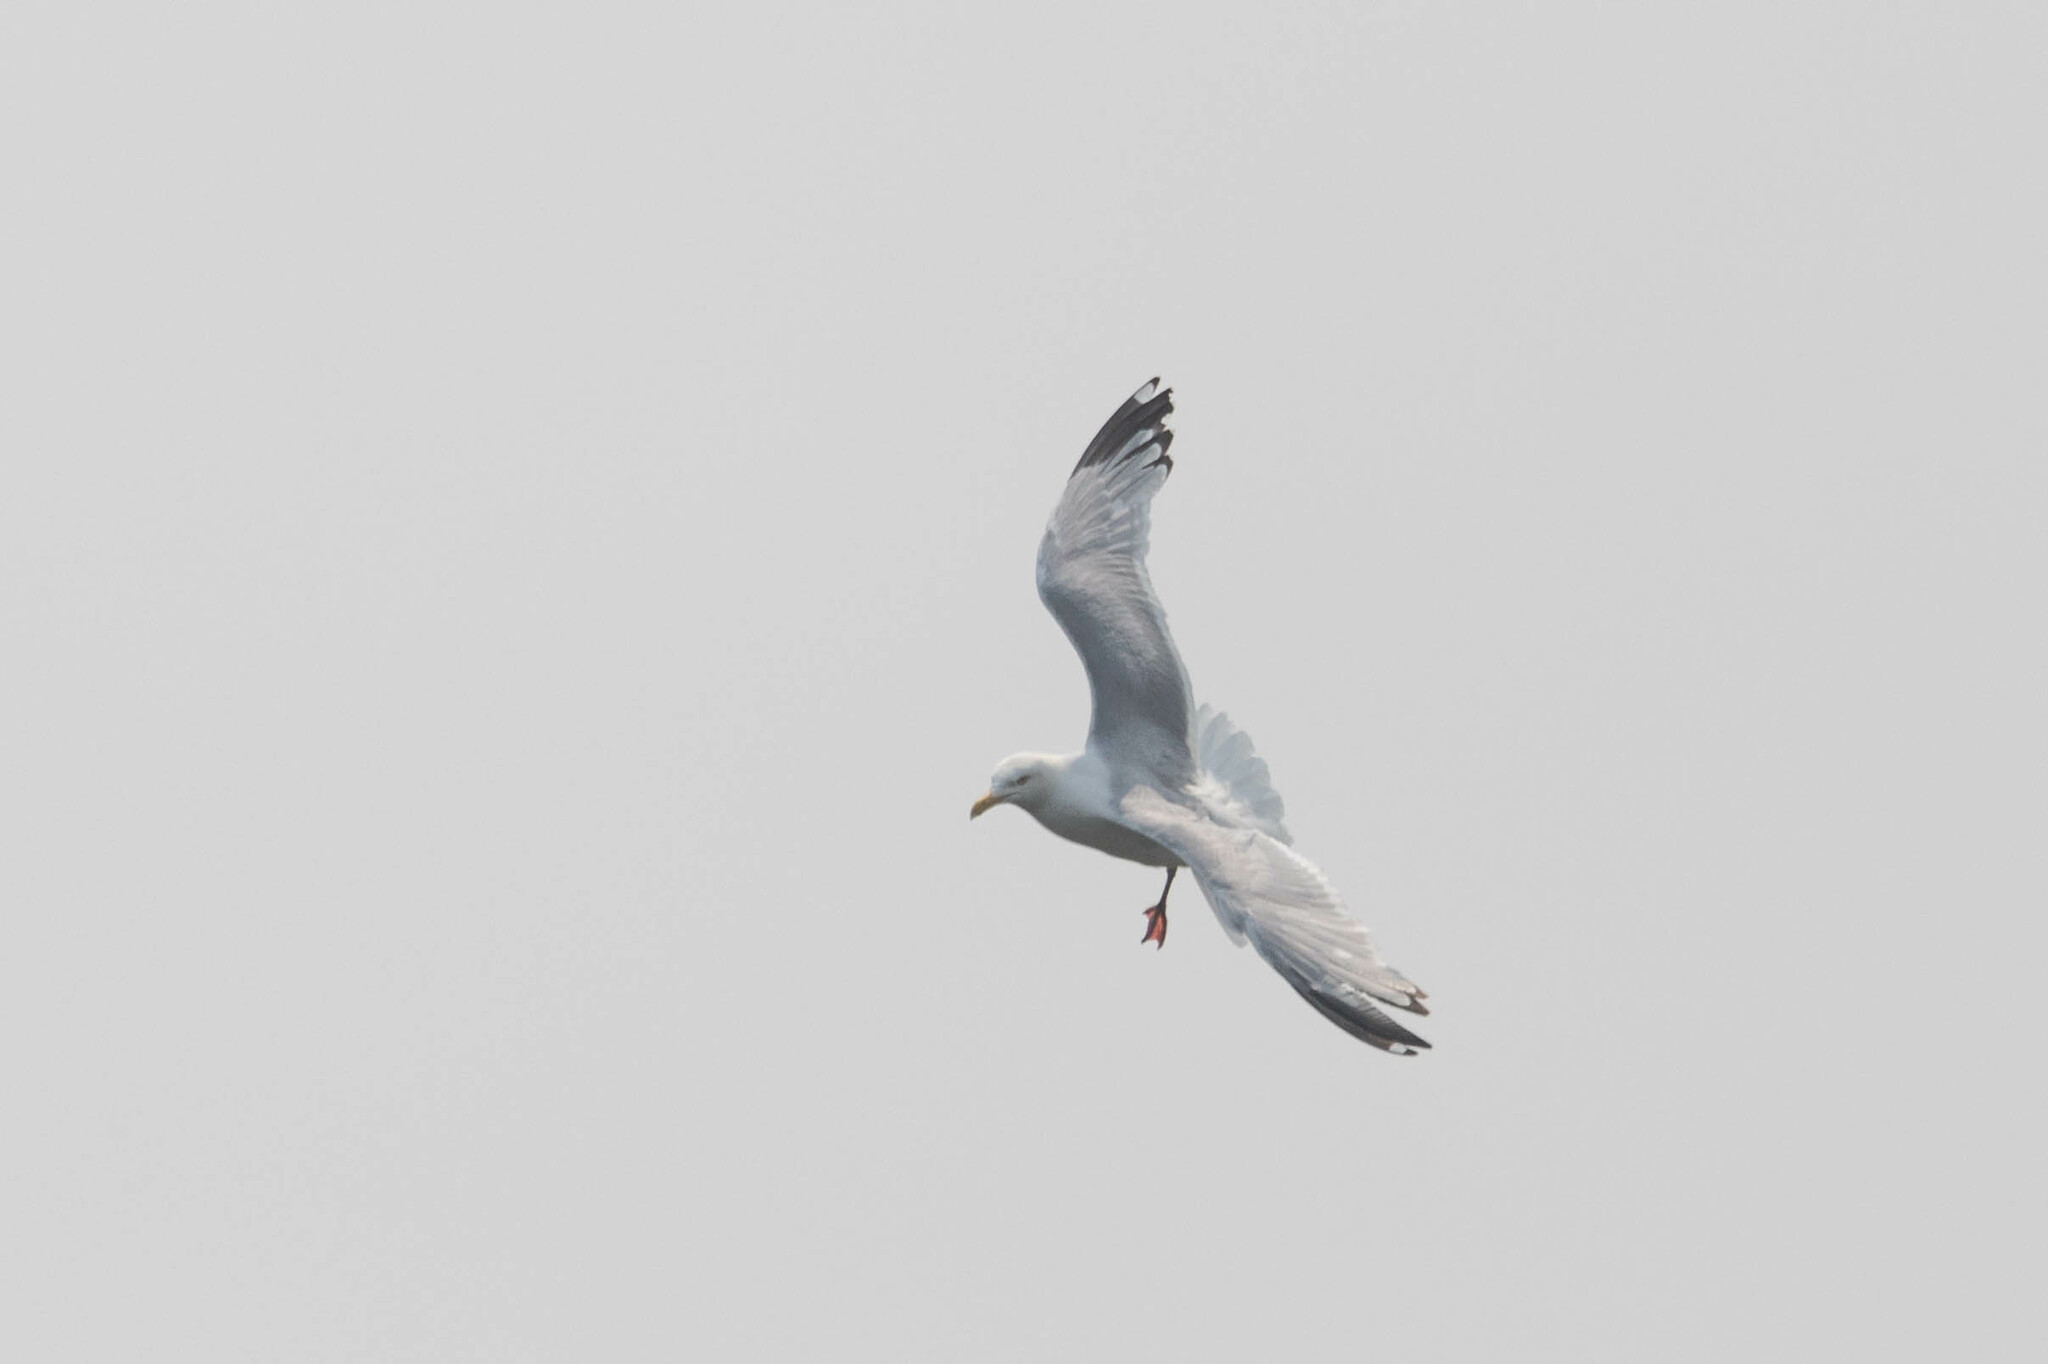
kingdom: Animalia
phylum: Chordata
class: Aves
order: Charadriiformes
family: Laridae
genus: Larus
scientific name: Larus argentatus
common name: Herring gull
